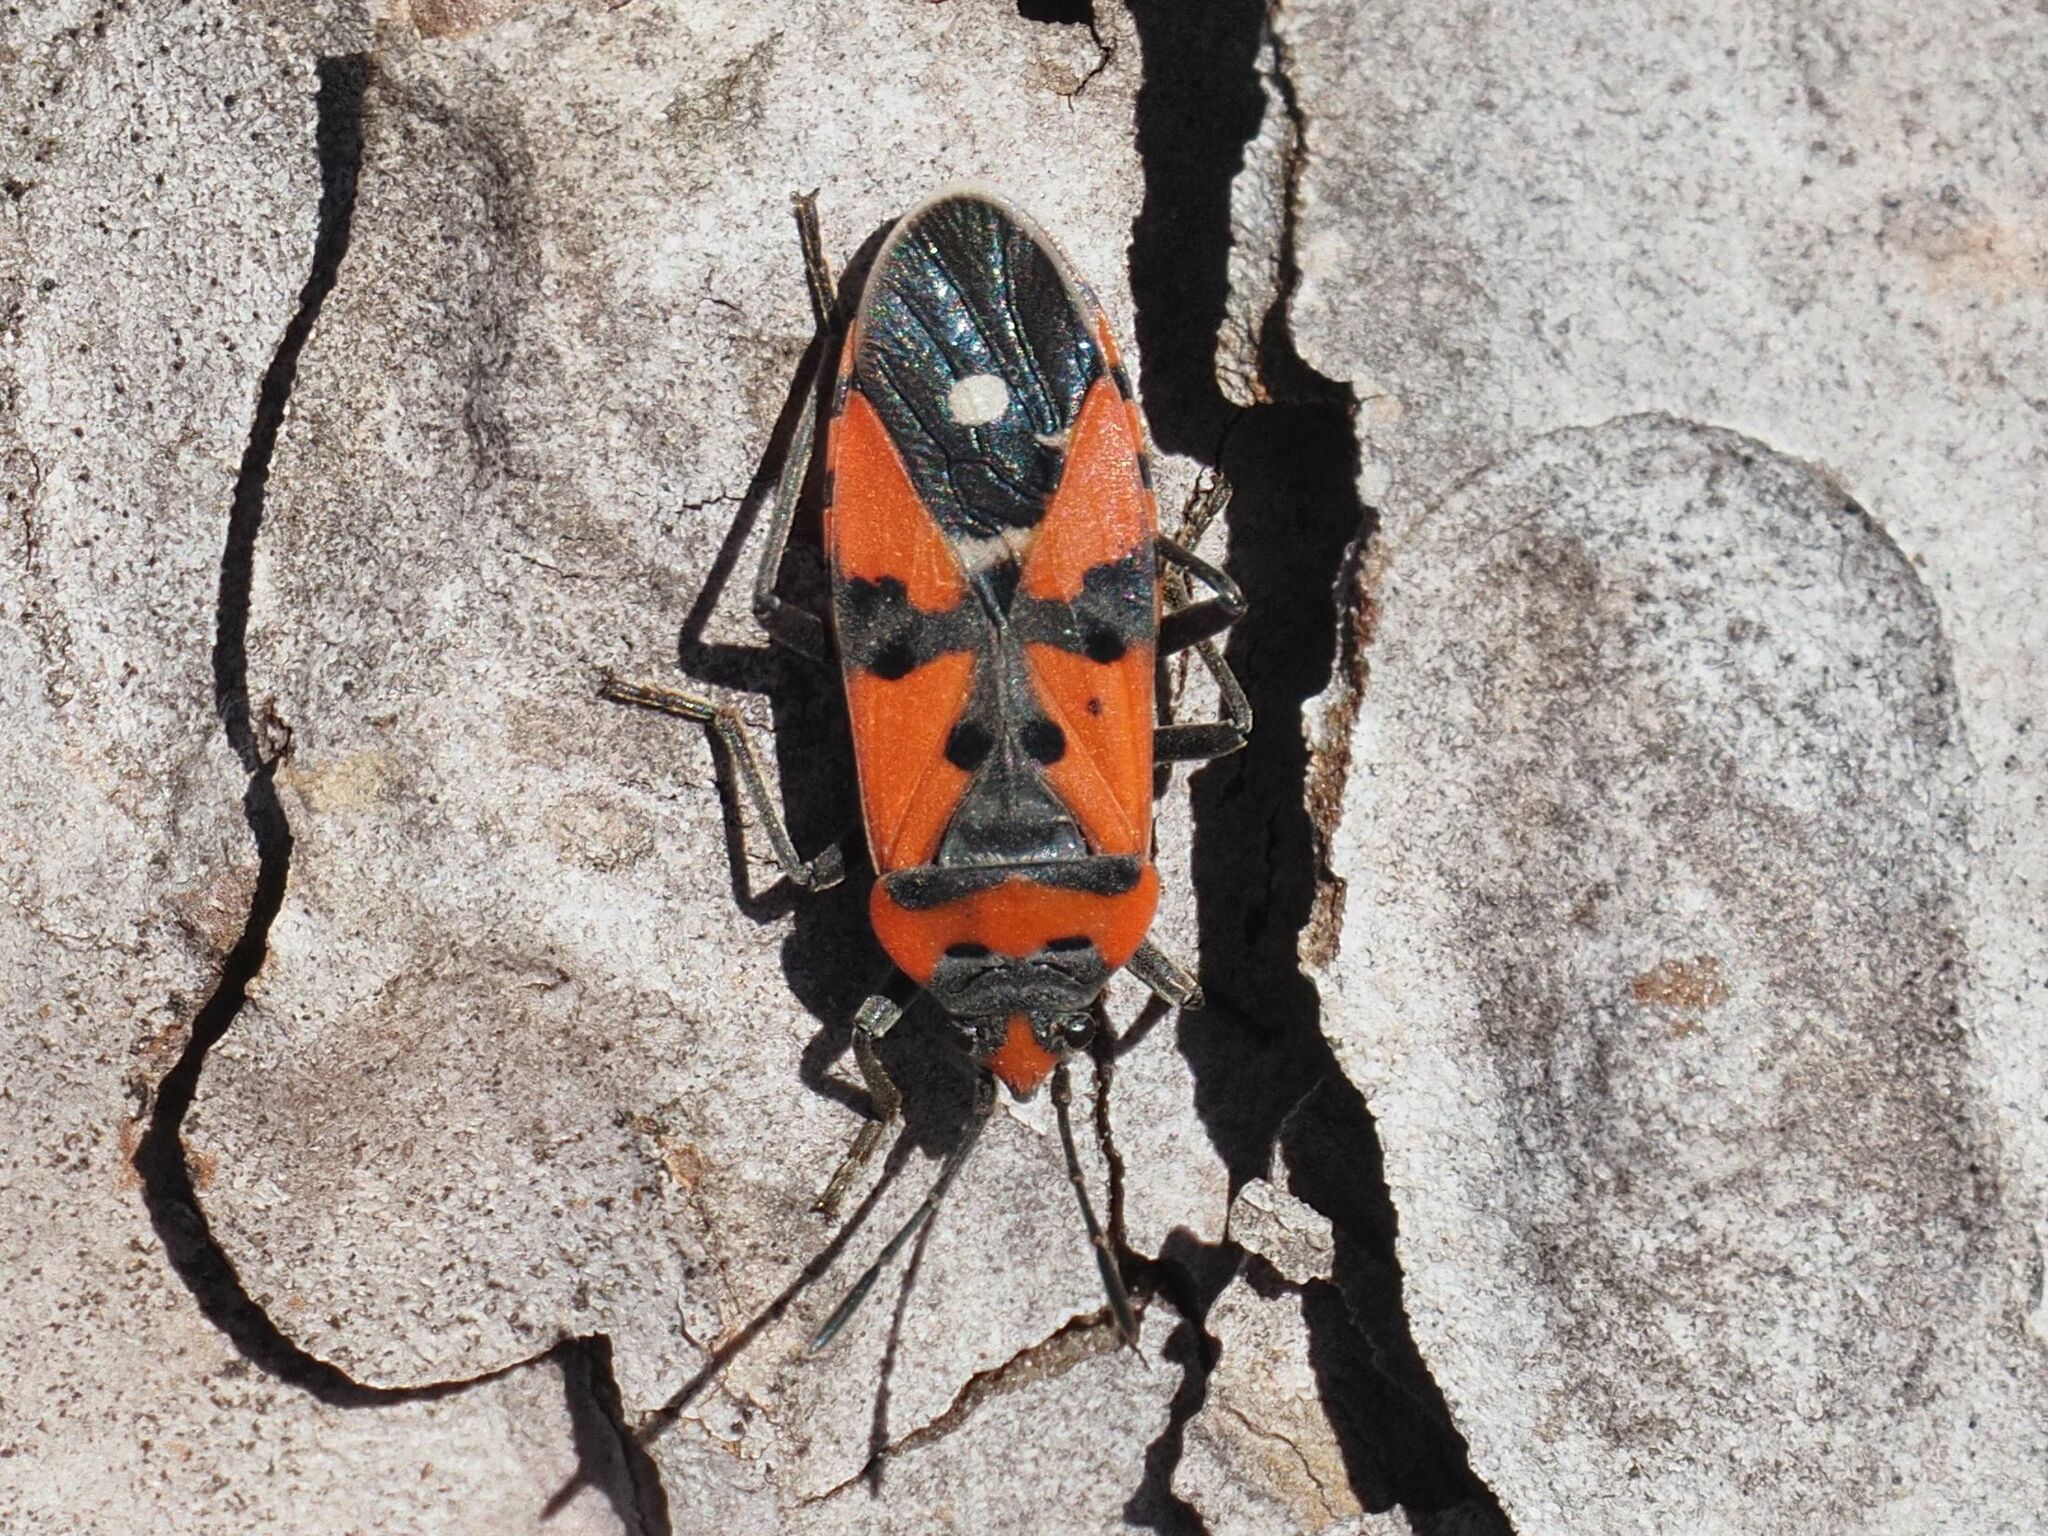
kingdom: Animalia
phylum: Arthropoda
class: Insecta
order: Hemiptera
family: Lygaeidae
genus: Lygaeus
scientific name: Lygaeus equestris
